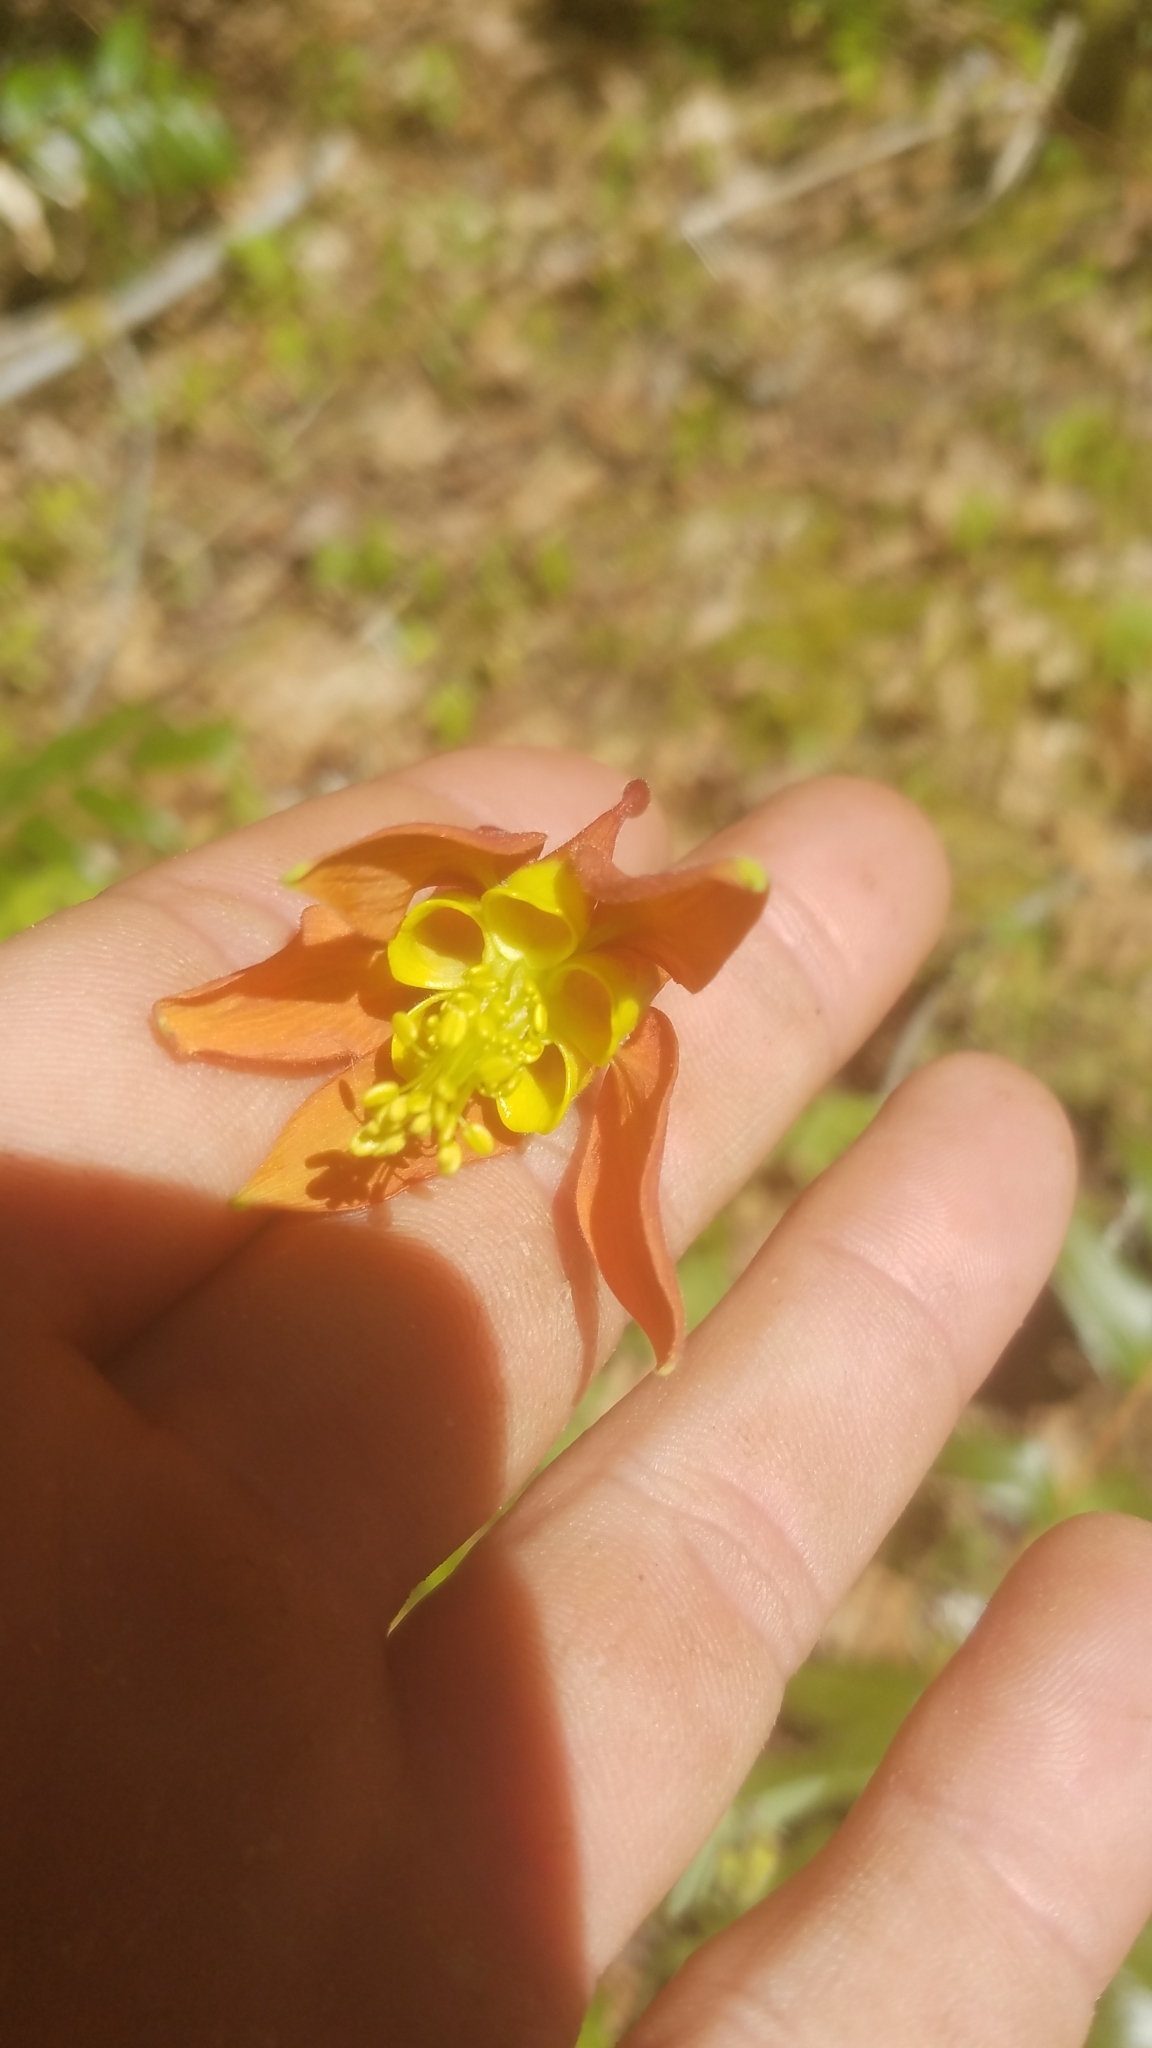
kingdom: Plantae
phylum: Tracheophyta
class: Magnoliopsida
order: Ranunculales
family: Ranunculaceae
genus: Aquilegia
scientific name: Aquilegia formosa
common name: Sitka columbine
